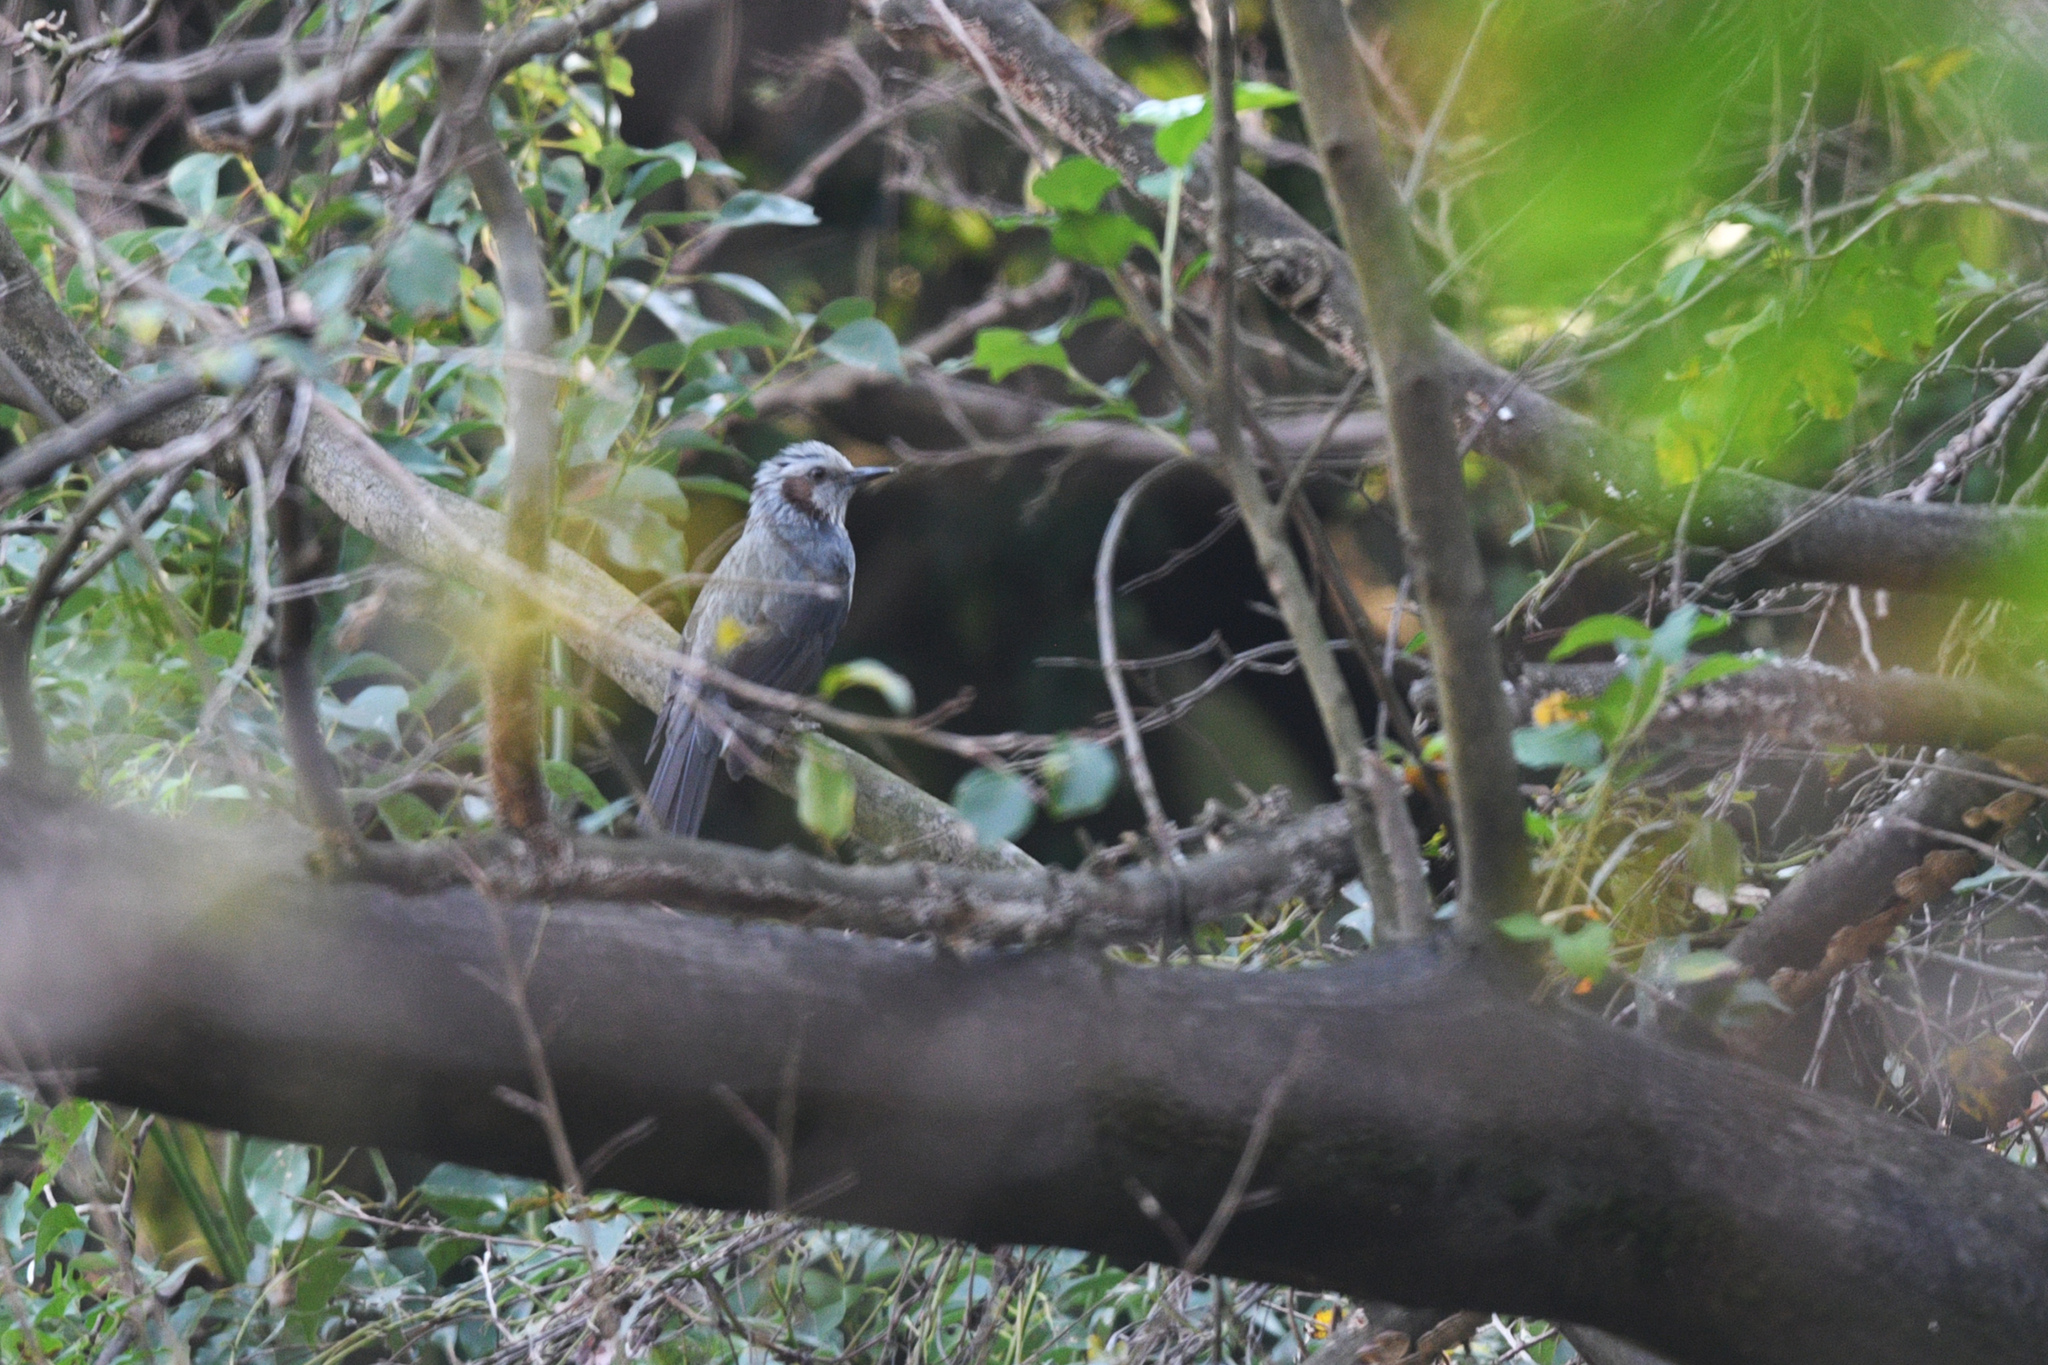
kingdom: Animalia
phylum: Chordata
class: Aves
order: Passeriformes
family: Pycnonotidae
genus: Hypsipetes
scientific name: Hypsipetes amaurotis
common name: Brown-eared bulbul
